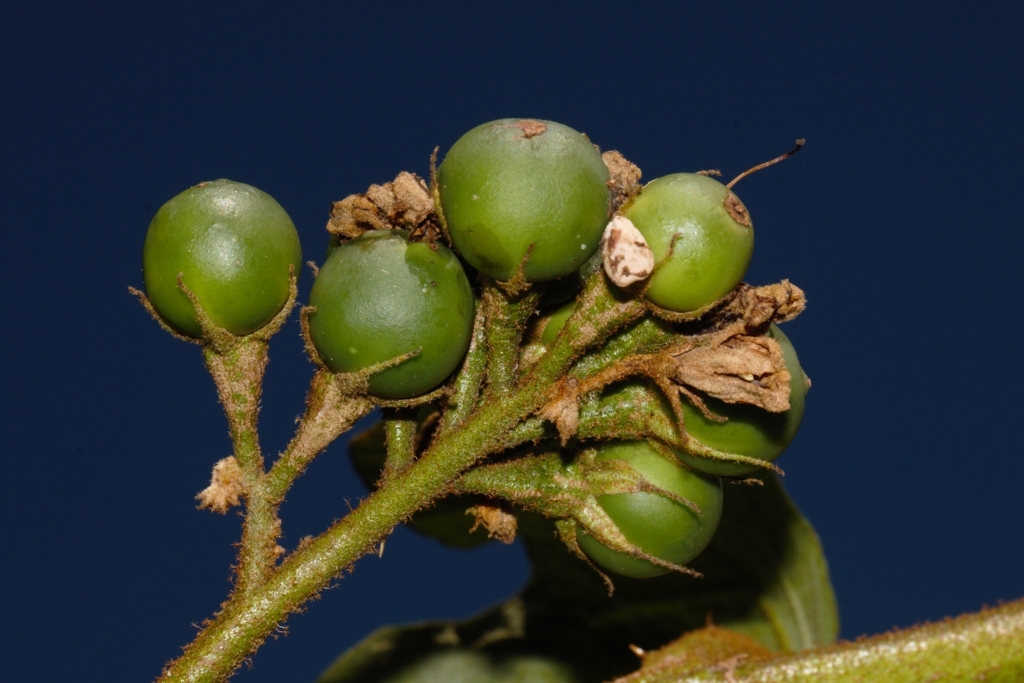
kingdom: Plantae
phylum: Tracheophyta
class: Magnoliopsida
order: Solanales
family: Solanaceae
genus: Solanum
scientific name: Solanum chrysotrichum
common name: Nightshade
